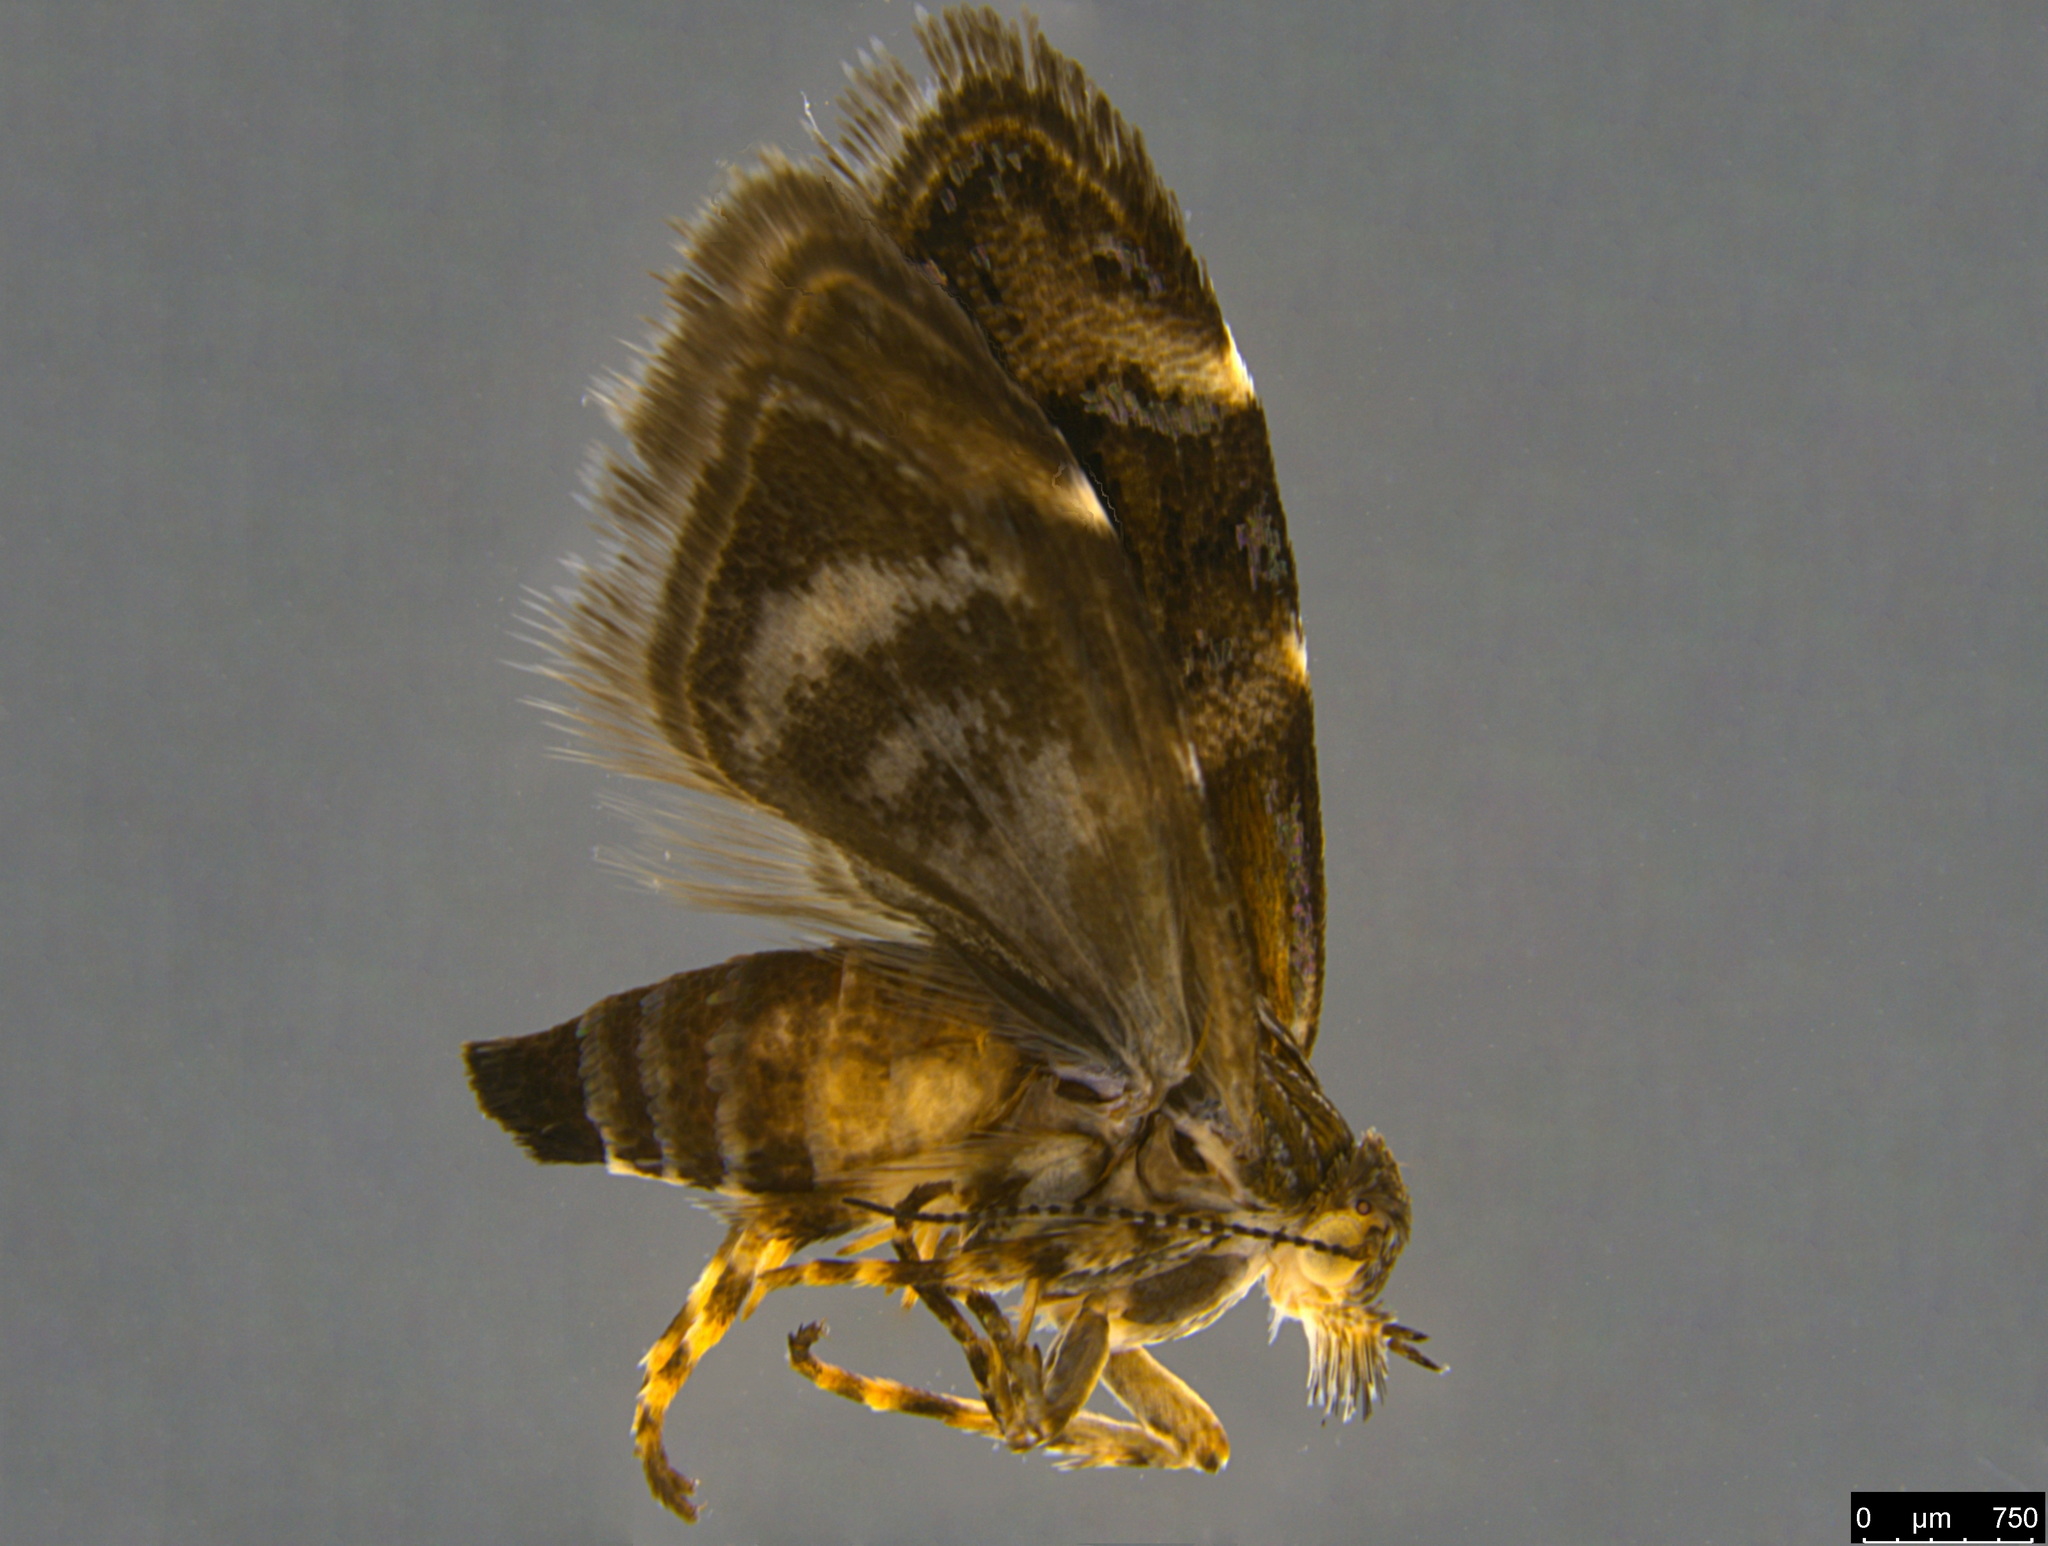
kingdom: Animalia
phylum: Arthropoda
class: Insecta
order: Lepidoptera
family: Choreutidae
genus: Tebenna
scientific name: Tebenna micalis
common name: Vagrant twitcher
